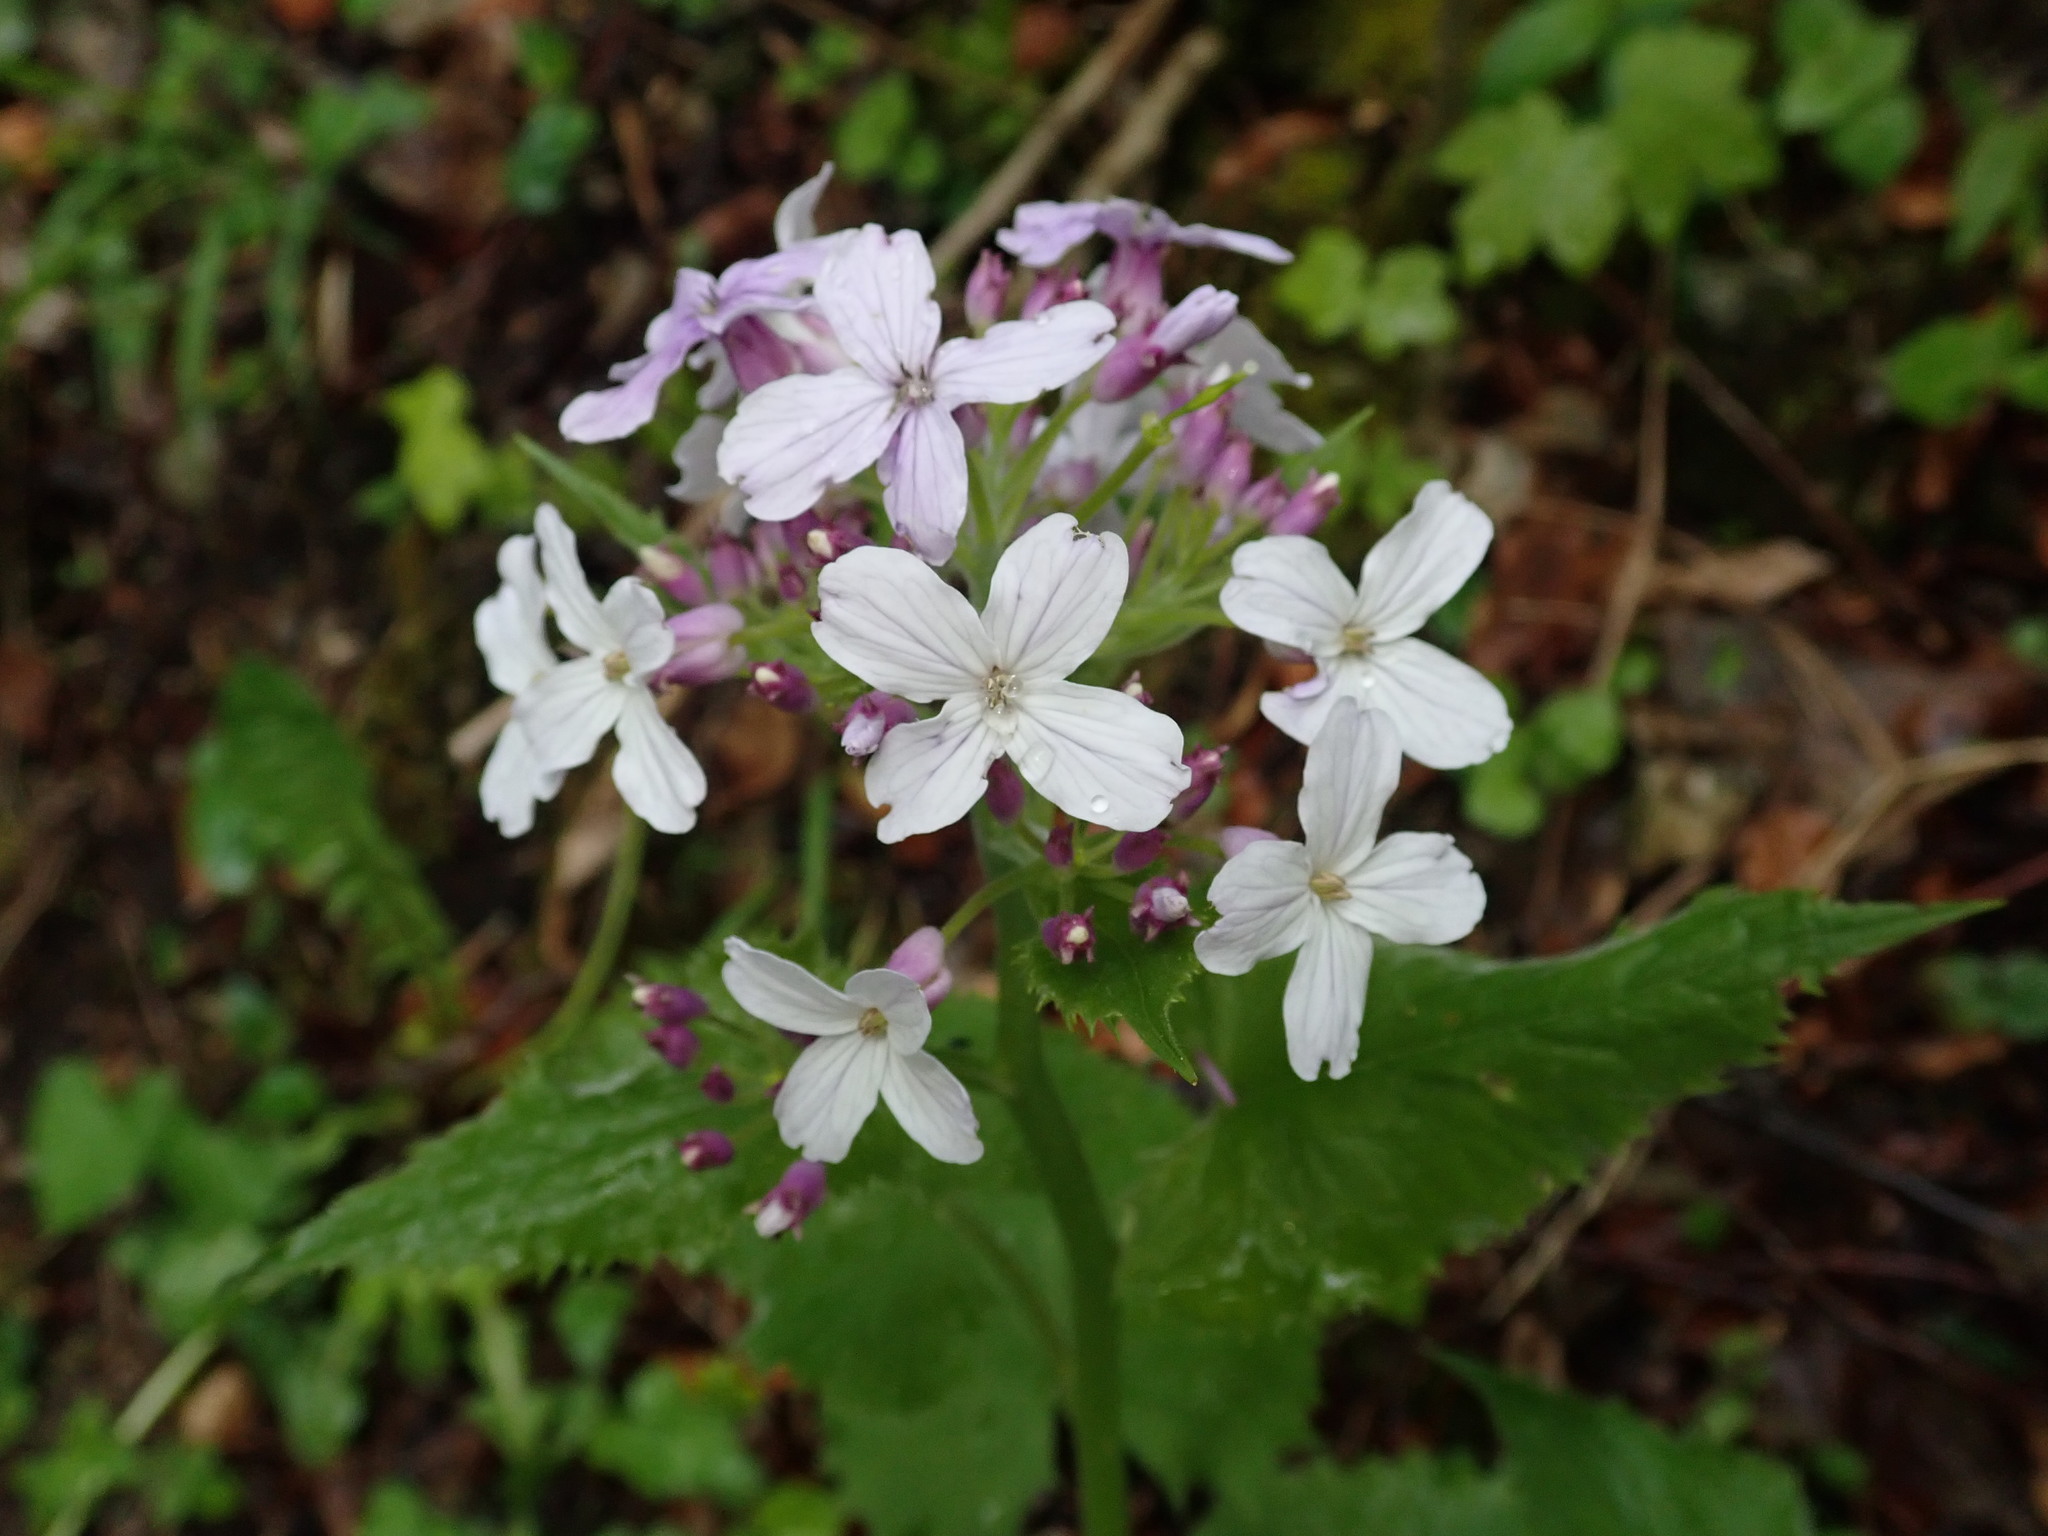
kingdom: Plantae
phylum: Tracheophyta
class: Magnoliopsida
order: Brassicales
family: Brassicaceae
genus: Lunaria
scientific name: Lunaria rediviva
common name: Perennial honesty
